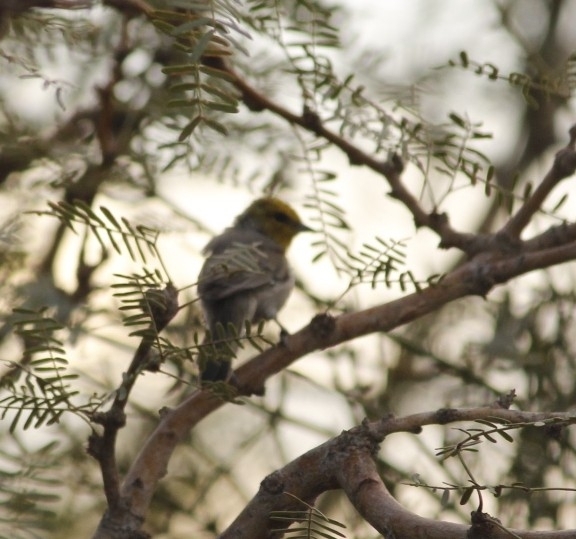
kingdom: Animalia
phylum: Chordata
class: Aves
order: Passeriformes
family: Remizidae
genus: Auriparus
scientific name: Auriparus flaviceps
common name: Verdin
